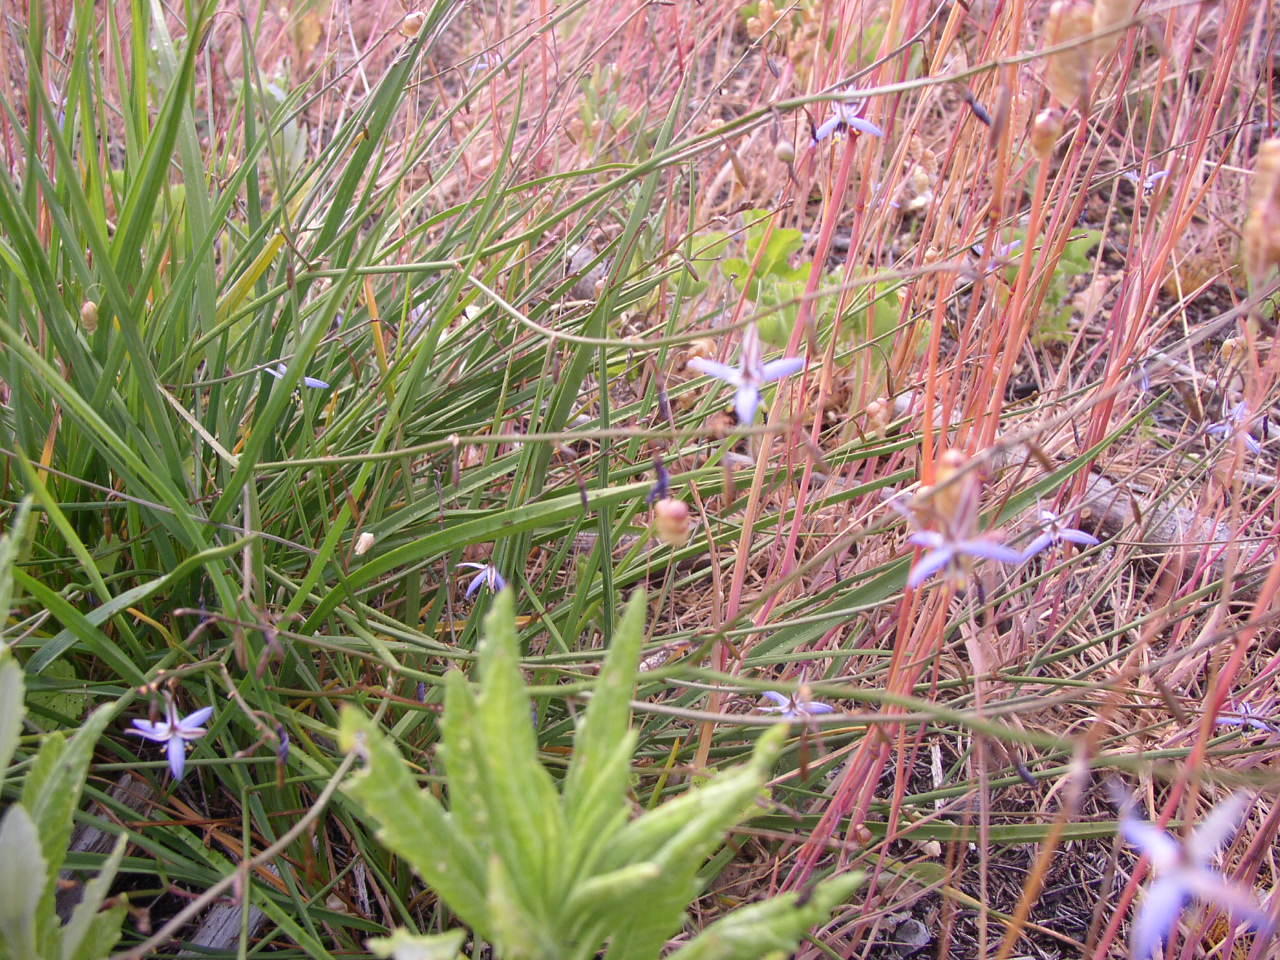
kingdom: Plantae
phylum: Tracheophyta
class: Liliopsida
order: Asparagales
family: Asphodelaceae
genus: Caesia
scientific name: Caesia contorta
